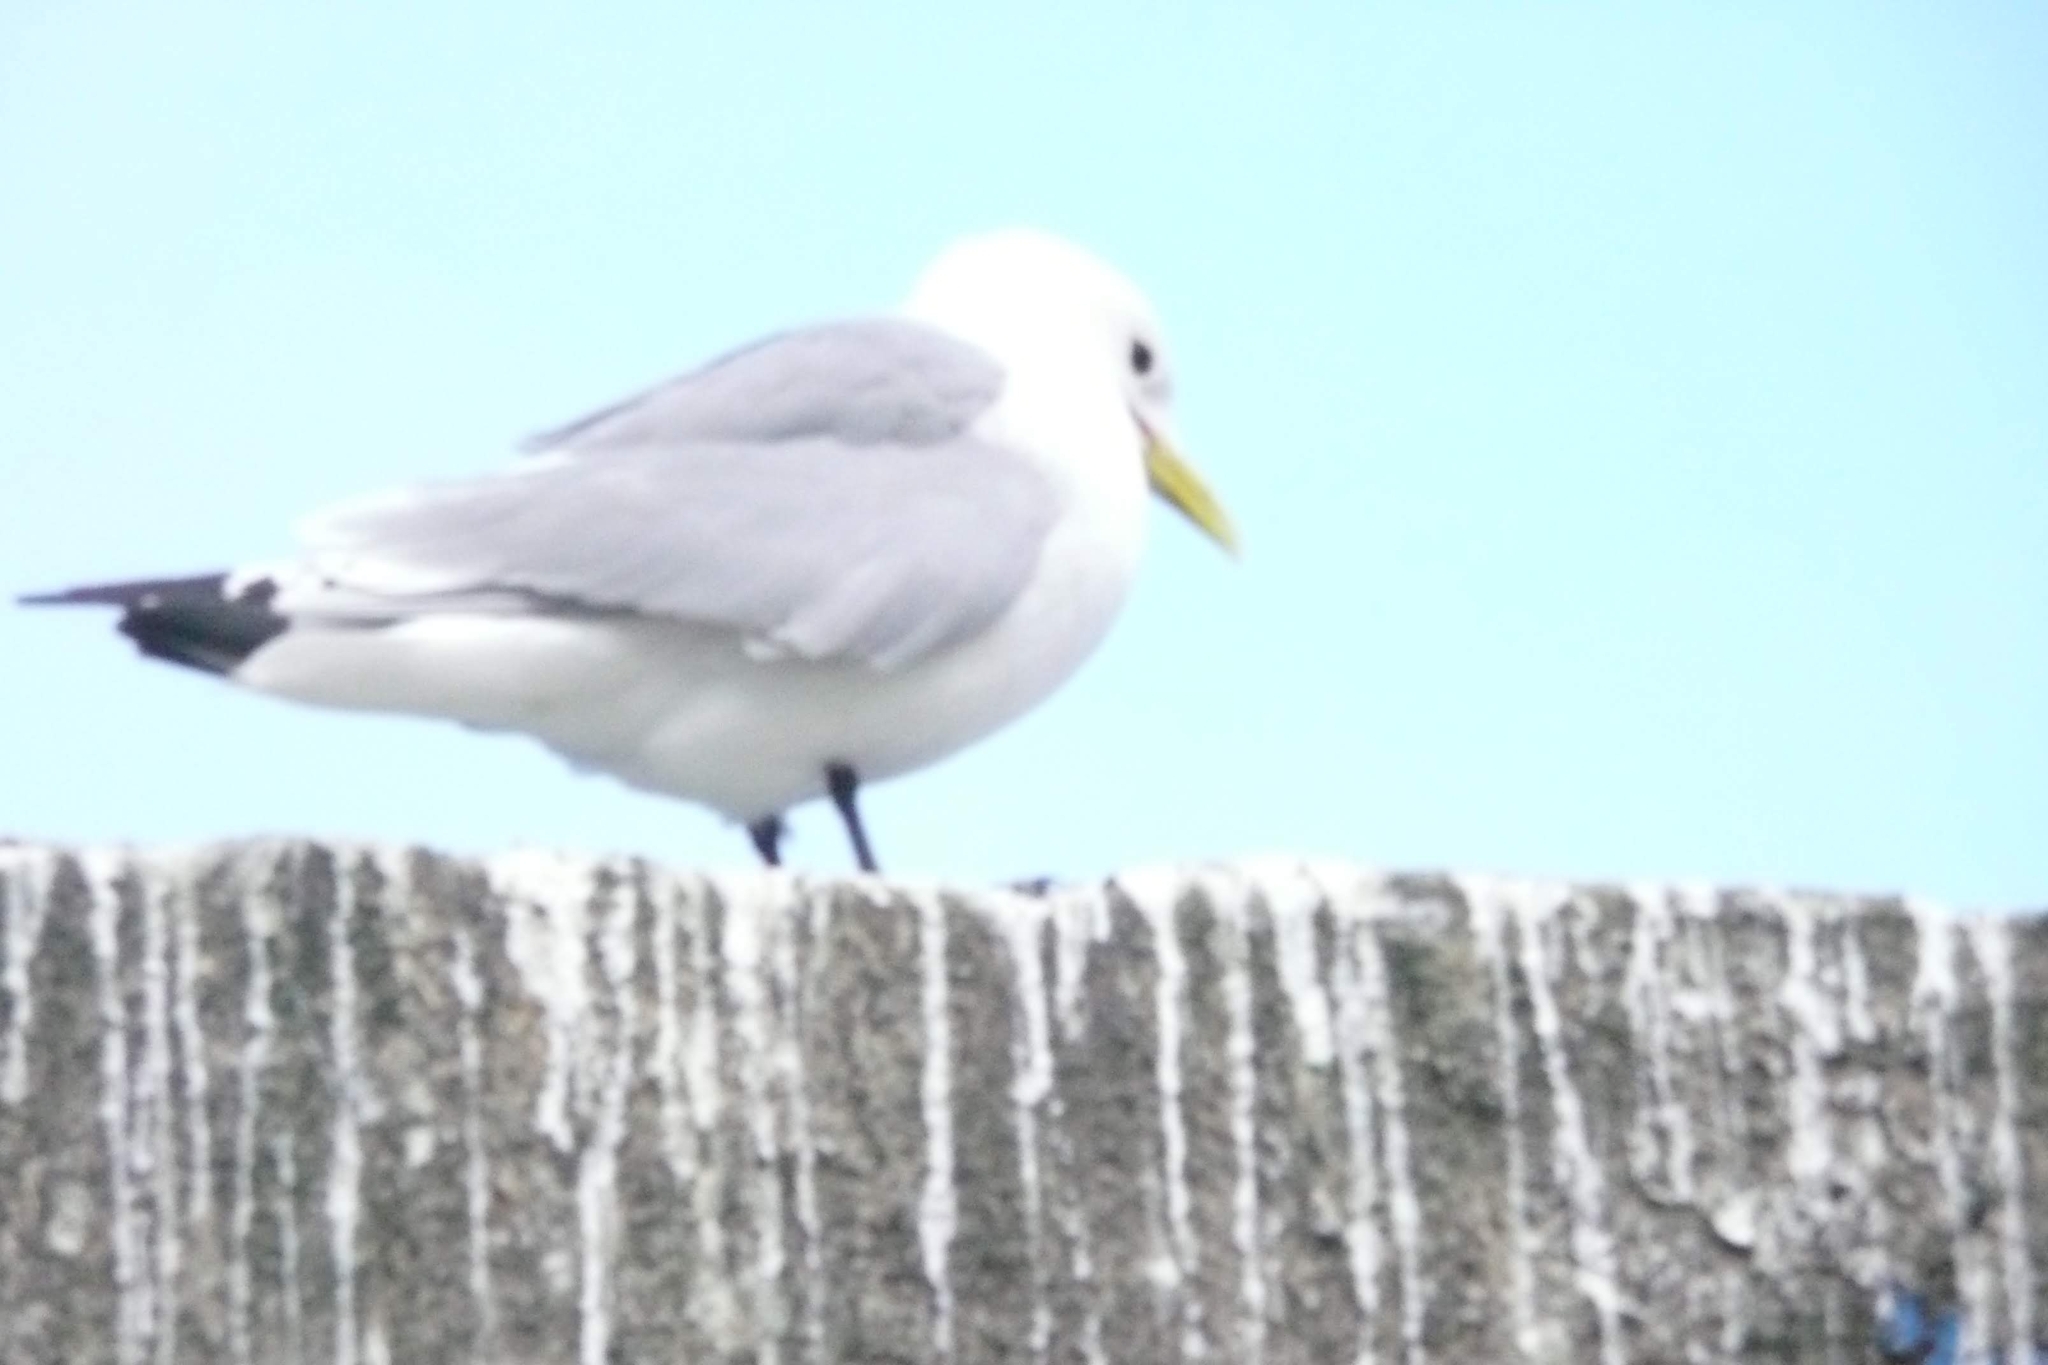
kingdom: Animalia
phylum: Chordata
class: Aves
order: Charadriiformes
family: Laridae
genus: Rissa
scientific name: Rissa tridactyla
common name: Black-legged kittiwake
